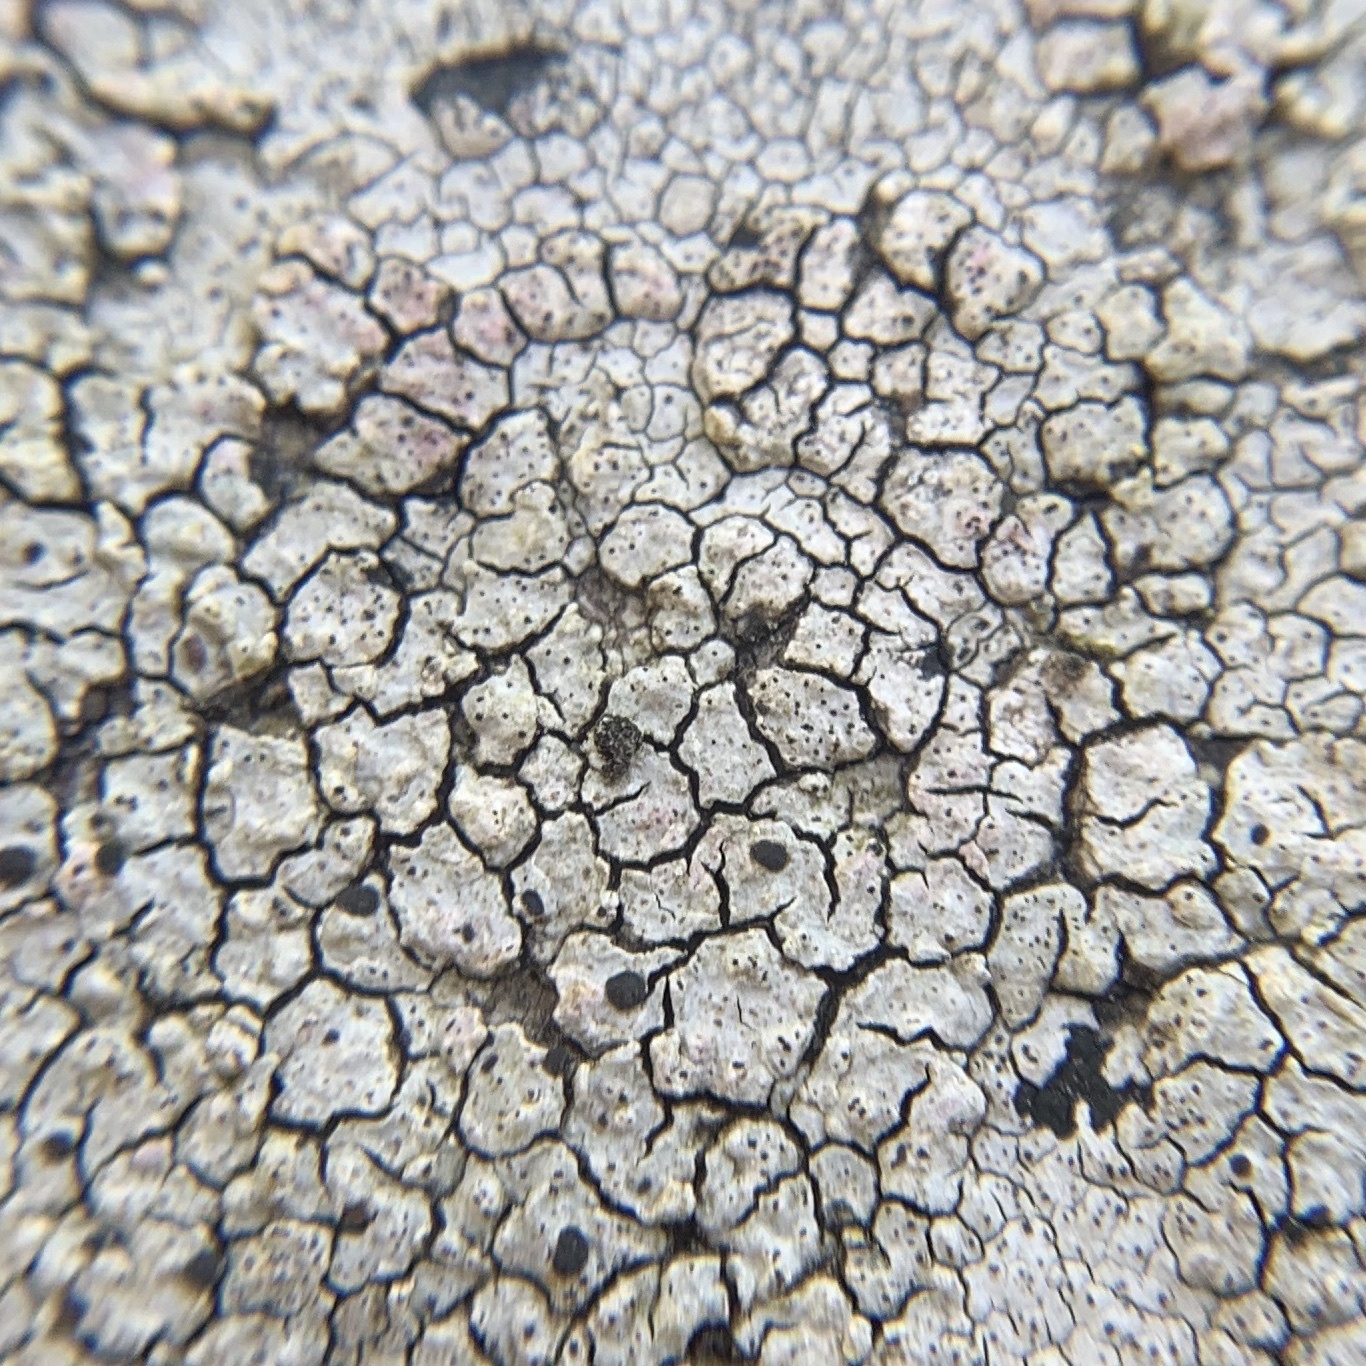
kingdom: Fungi
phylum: Ascomycota
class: Lecanoromycetes
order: Caliciales
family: Caliciaceae
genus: Buellia
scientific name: Buellia spuria
